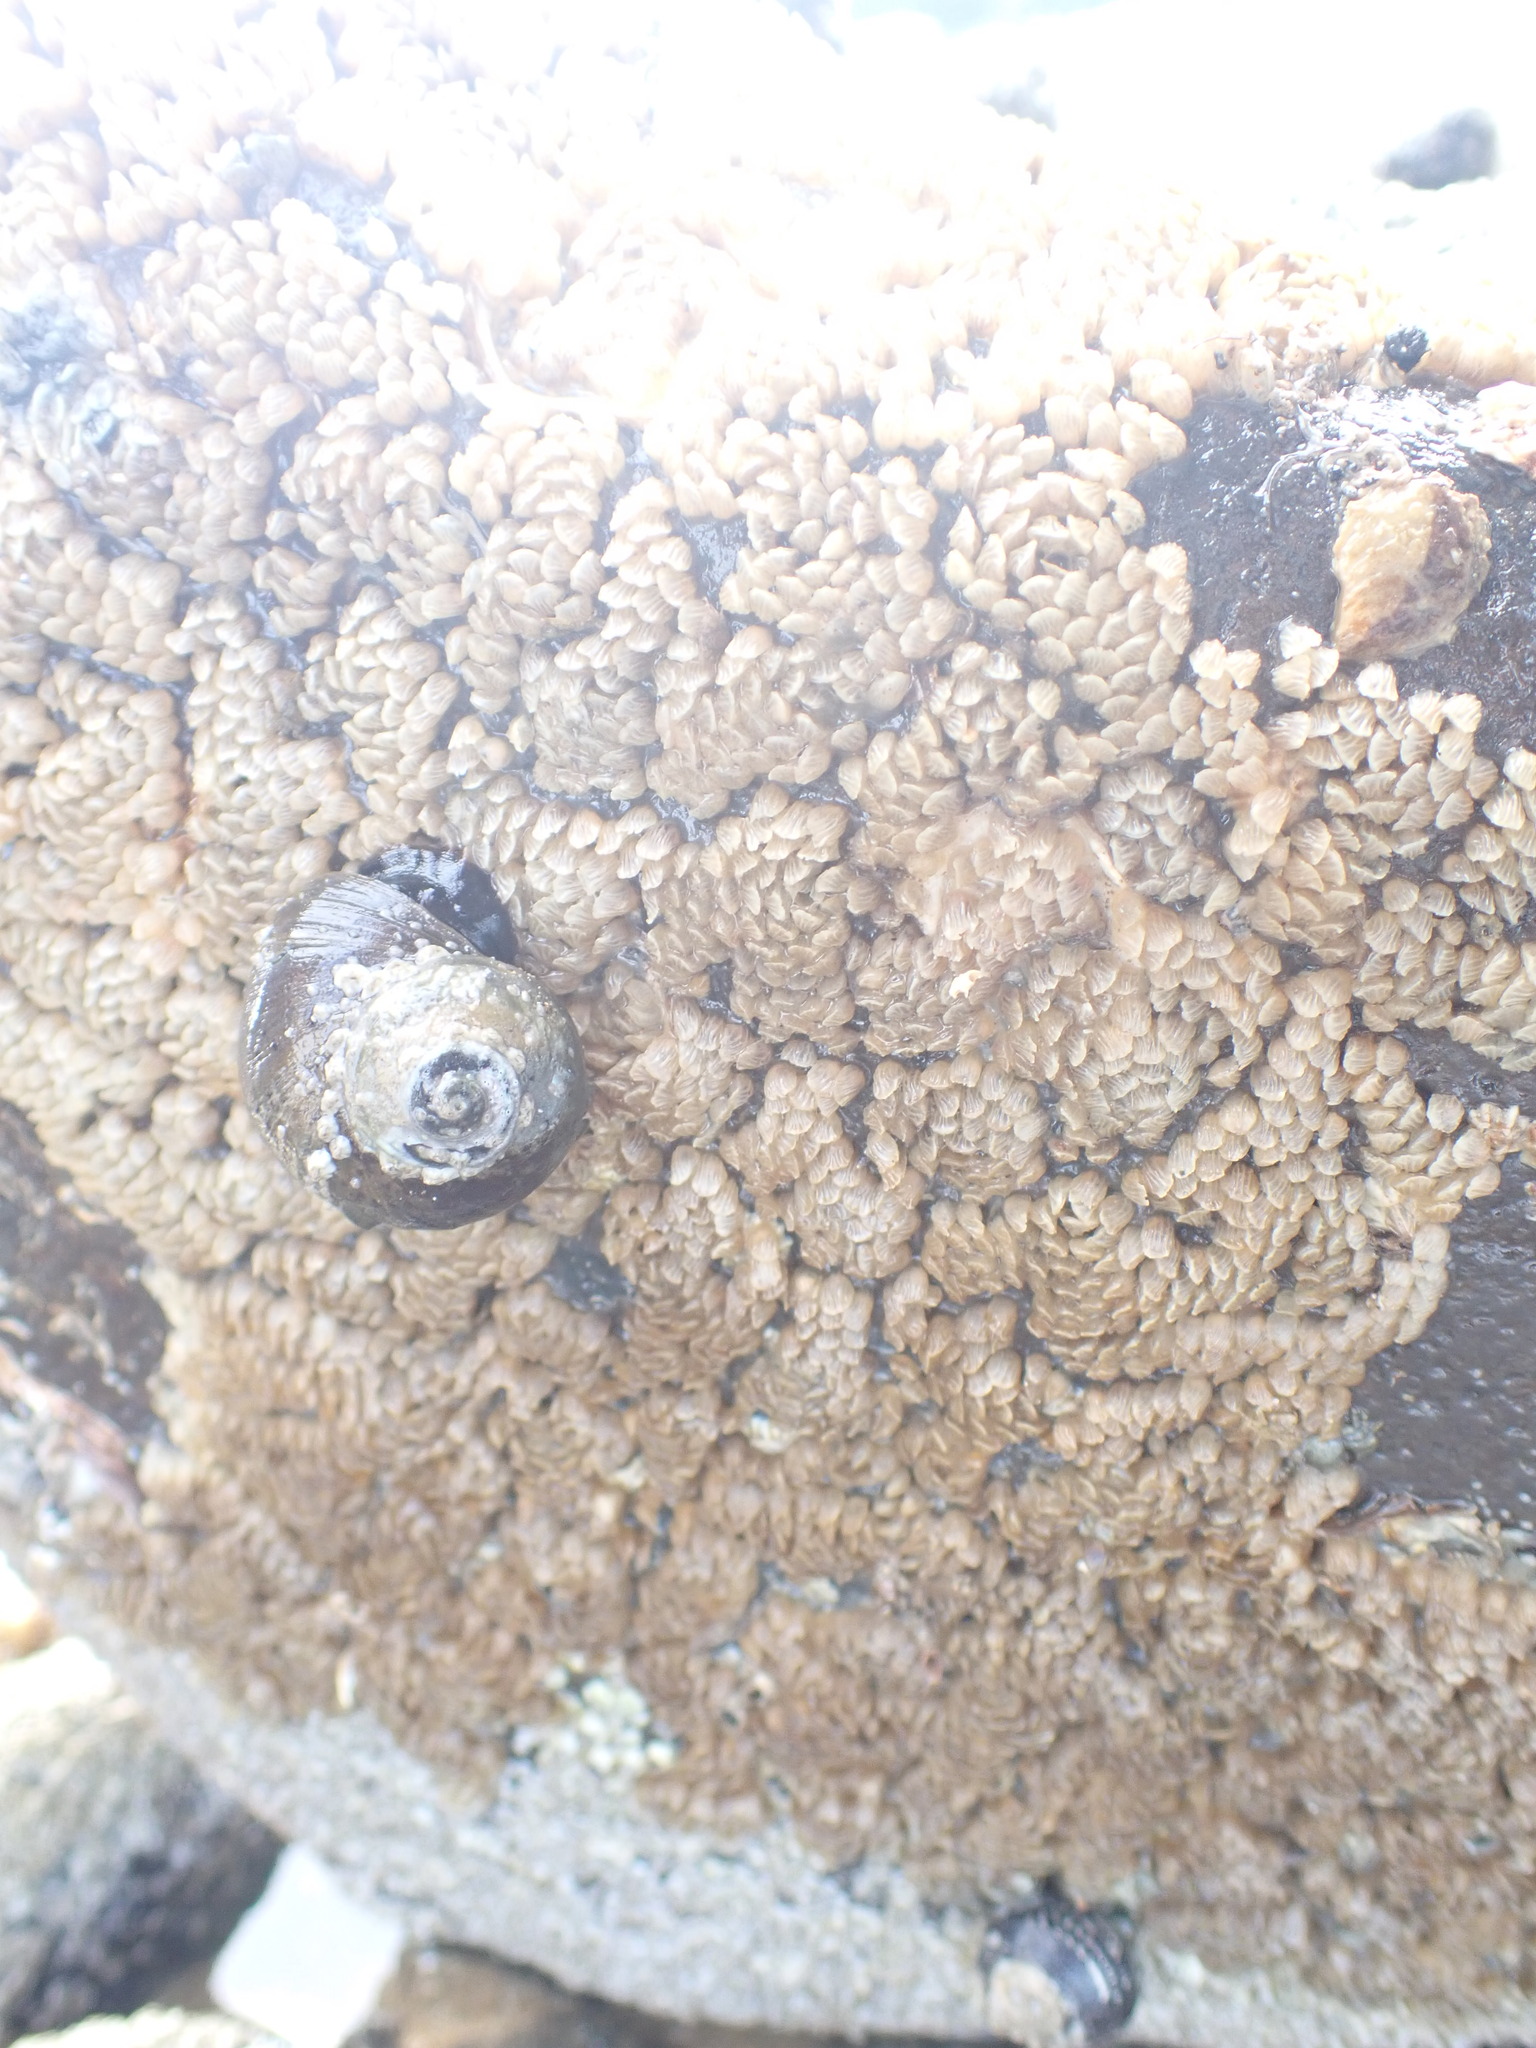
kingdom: Animalia
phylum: Mollusca
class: Gastropoda
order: Neogastropoda
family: Cominellidae
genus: Cominella
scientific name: Cominella virgata
